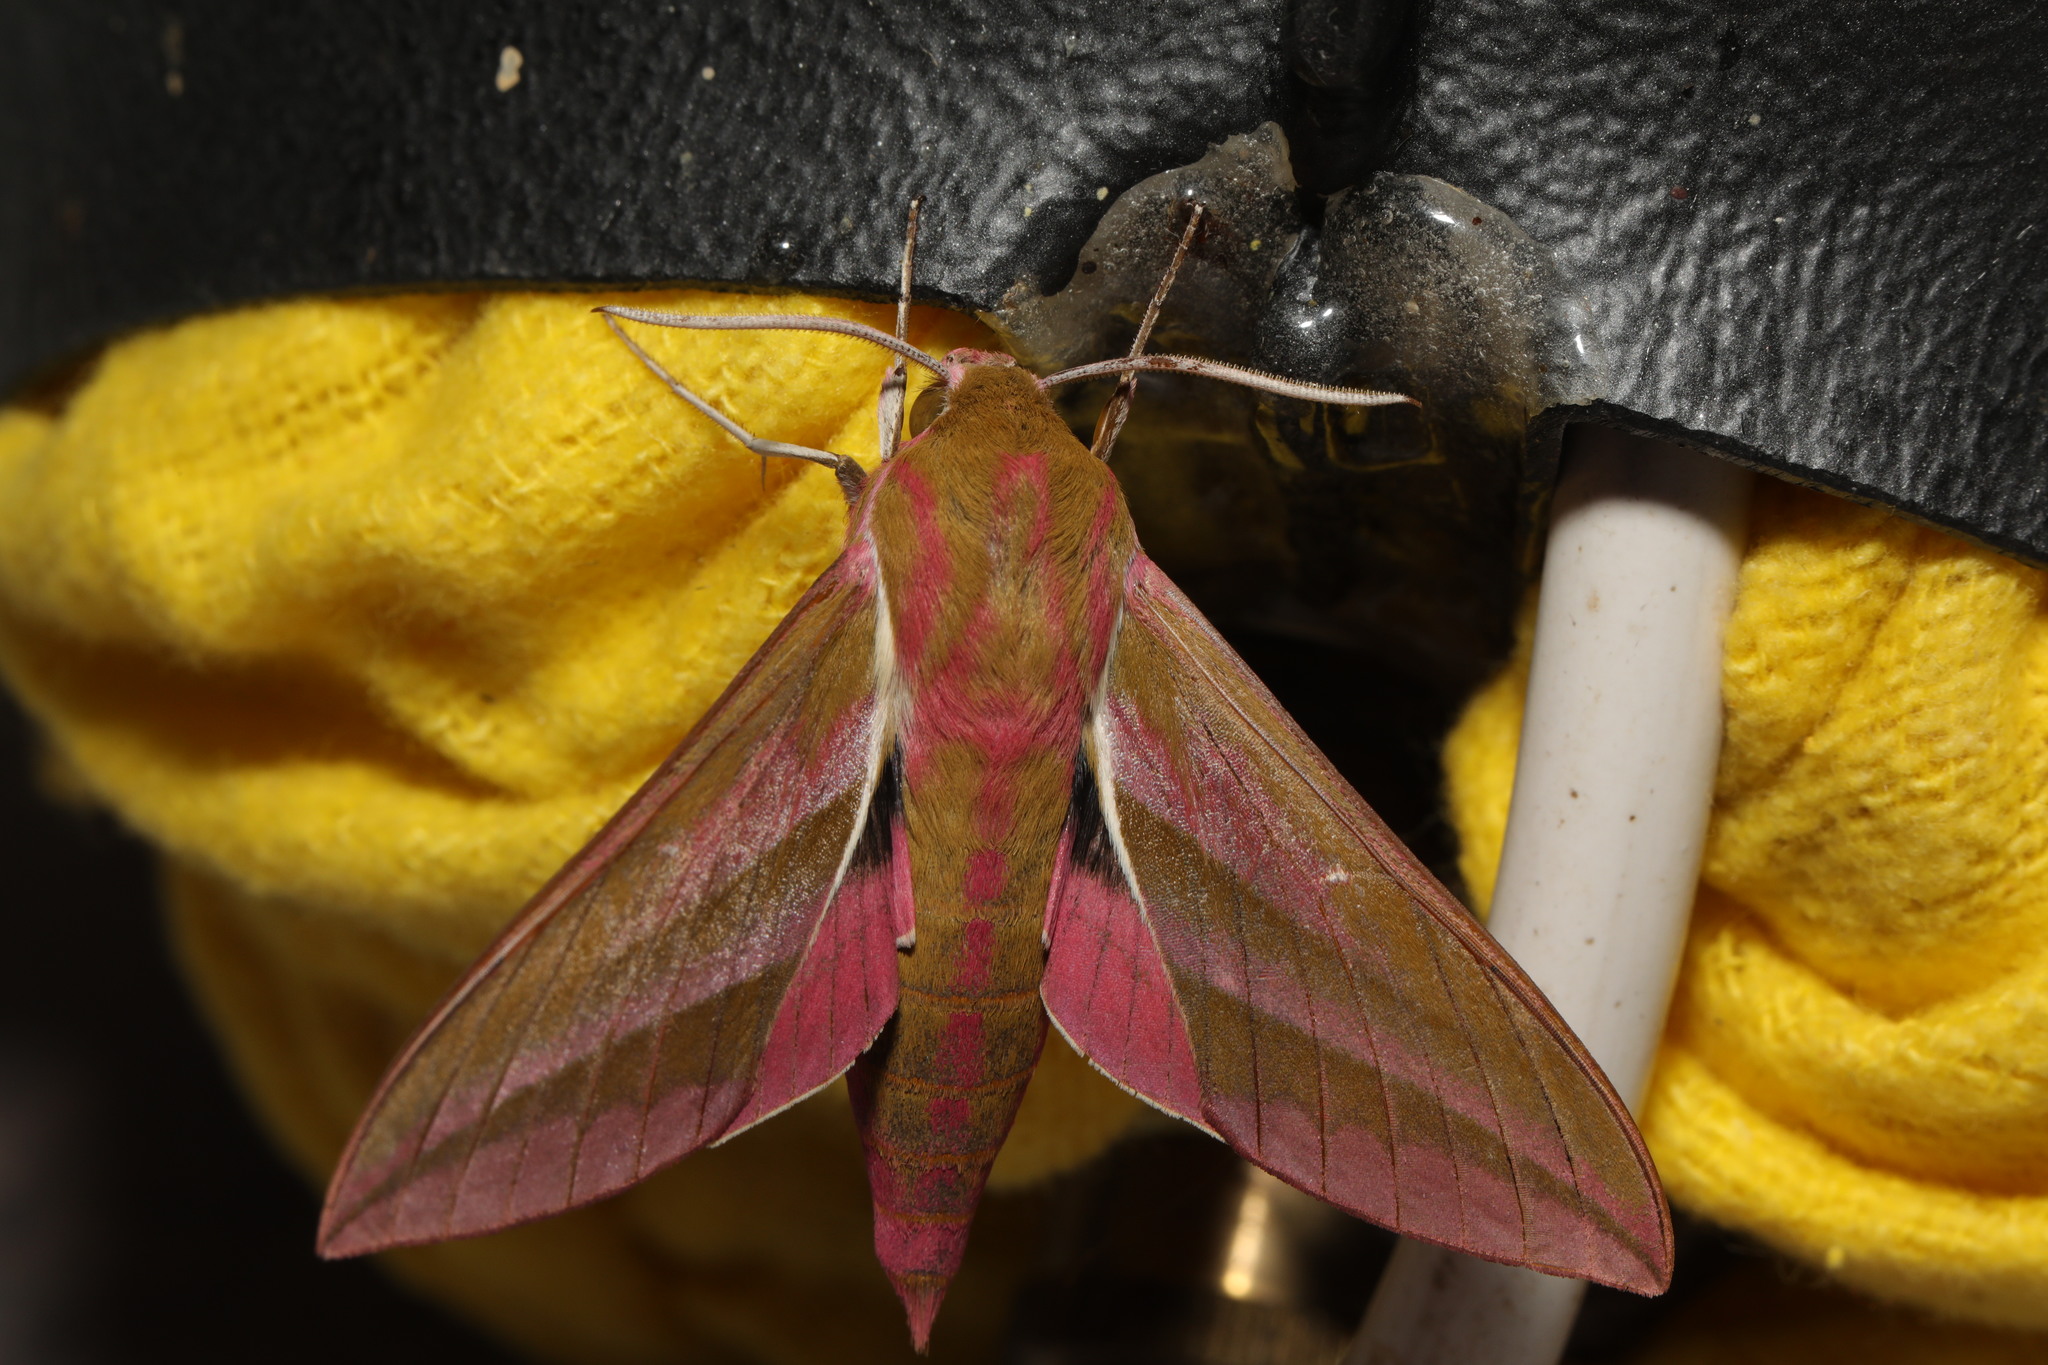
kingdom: Animalia
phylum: Arthropoda
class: Insecta
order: Lepidoptera
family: Sphingidae
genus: Deilephila
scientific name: Deilephila elpenor
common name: Elephant hawk-moth
